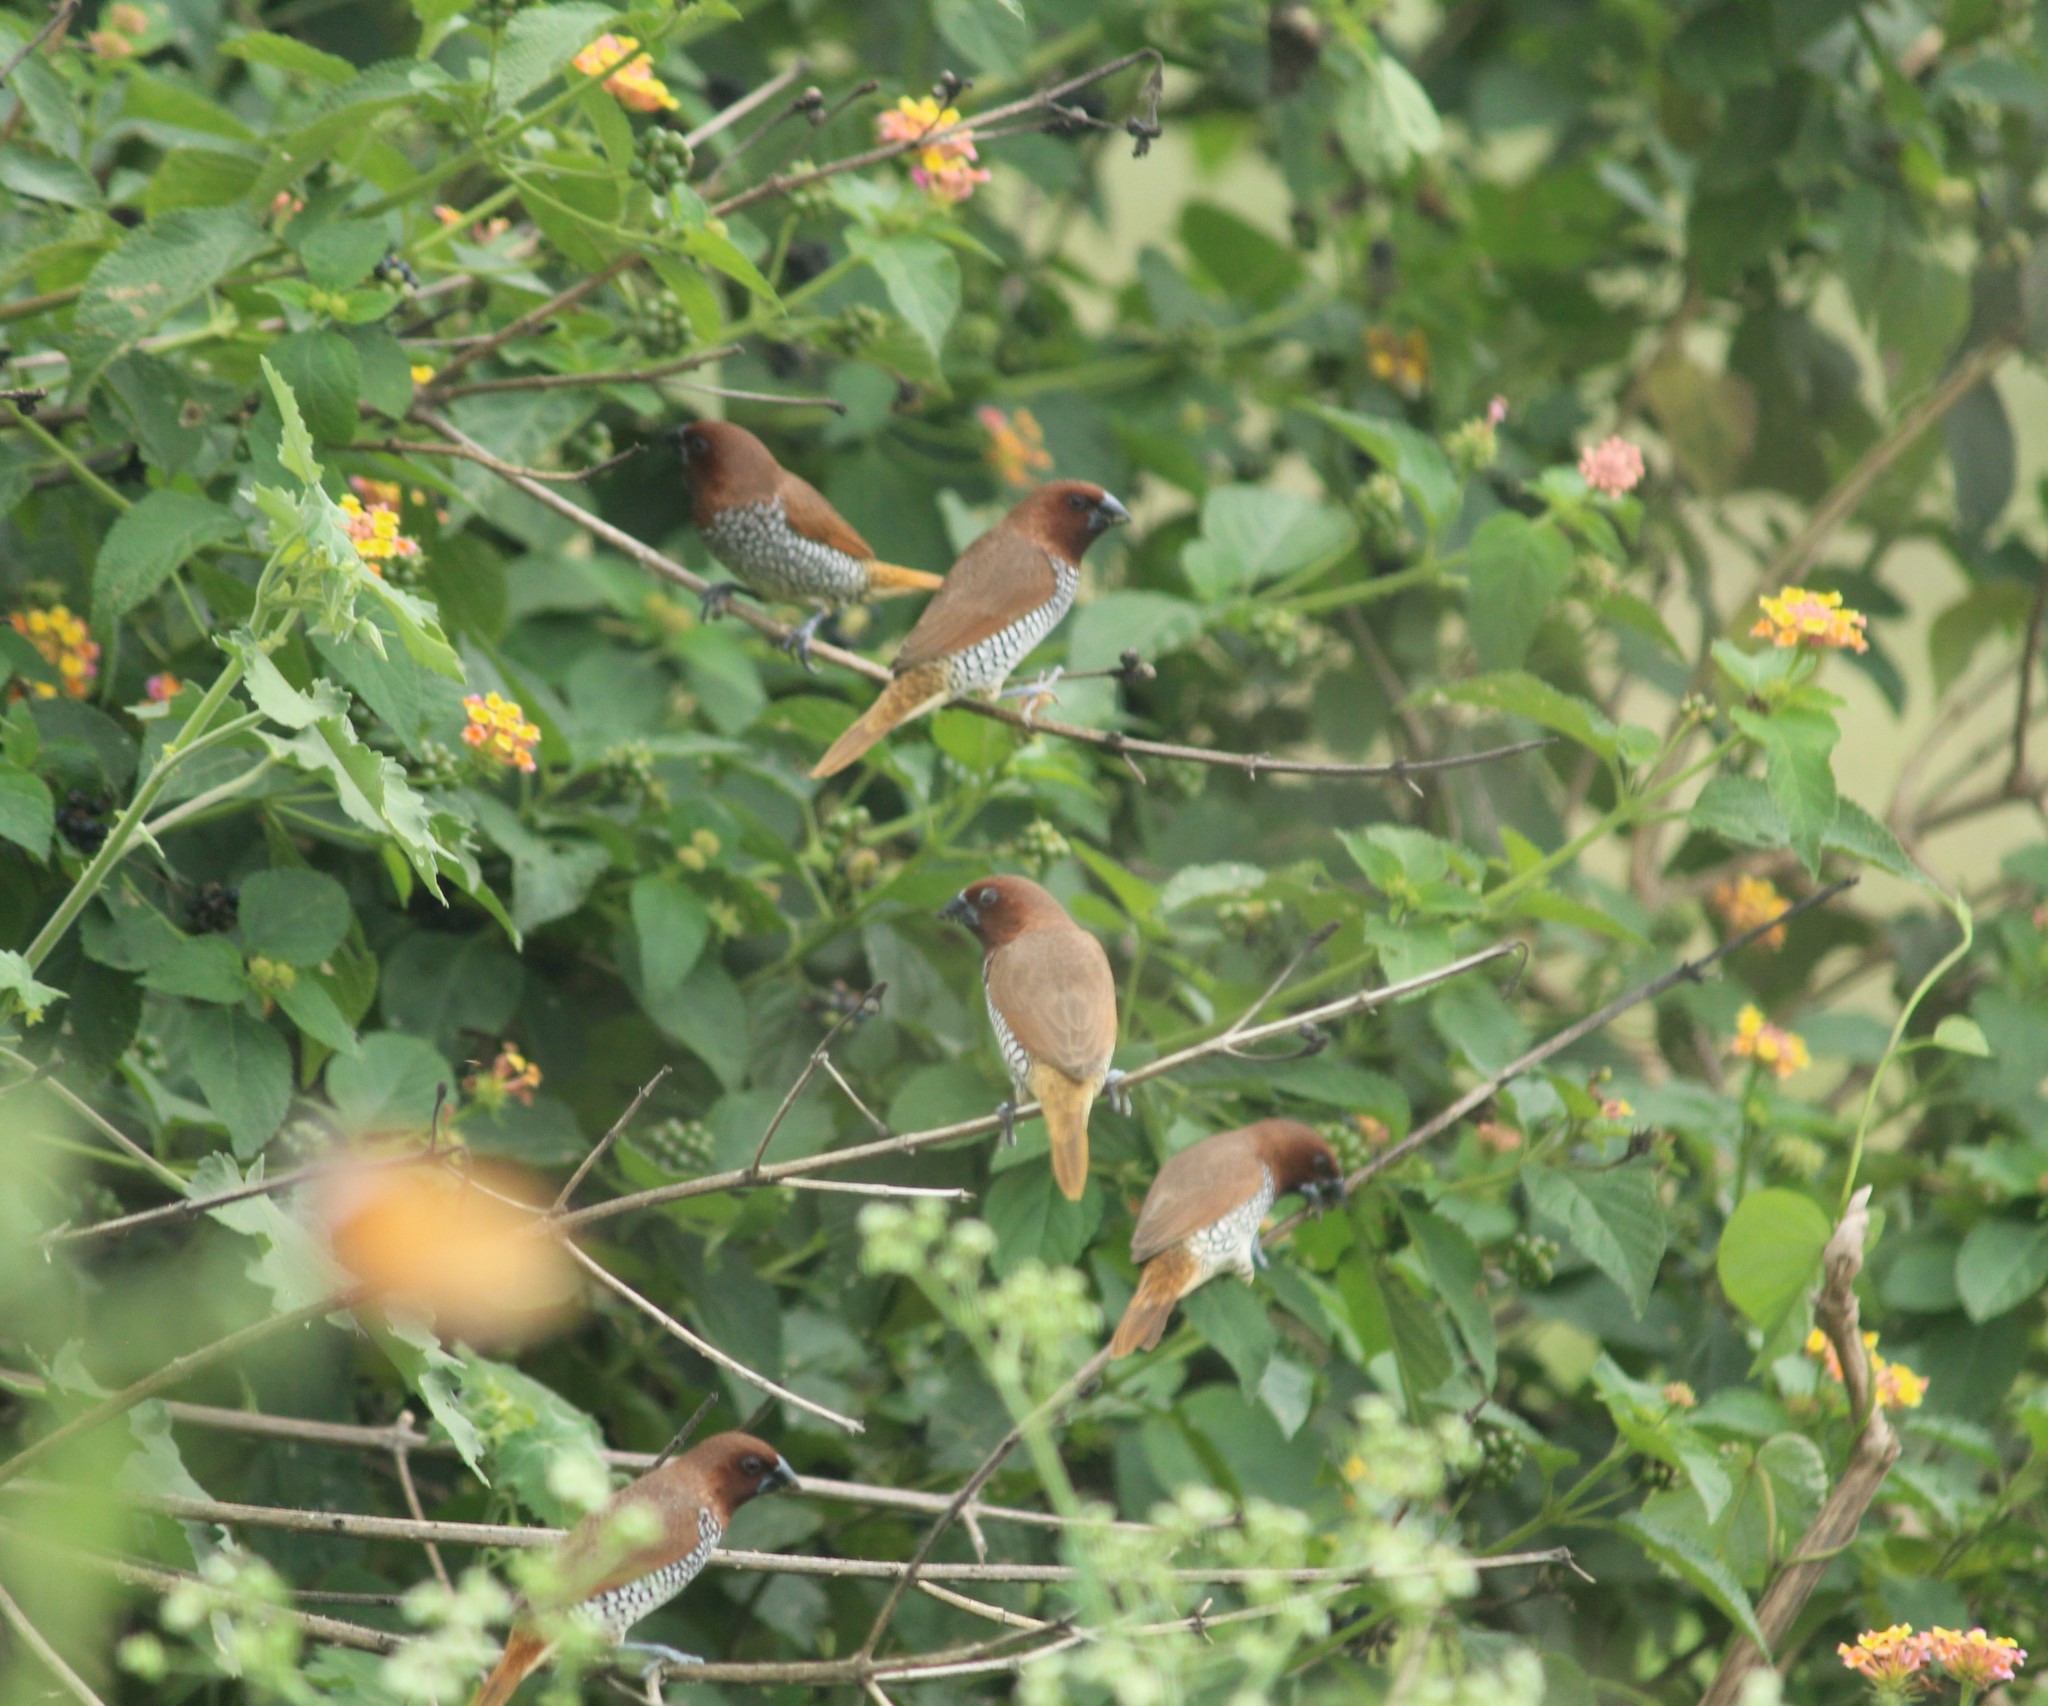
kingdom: Animalia
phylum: Chordata
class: Aves
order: Passeriformes
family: Estrildidae
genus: Lonchura
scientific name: Lonchura punctulata
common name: Scaly-breasted munia
